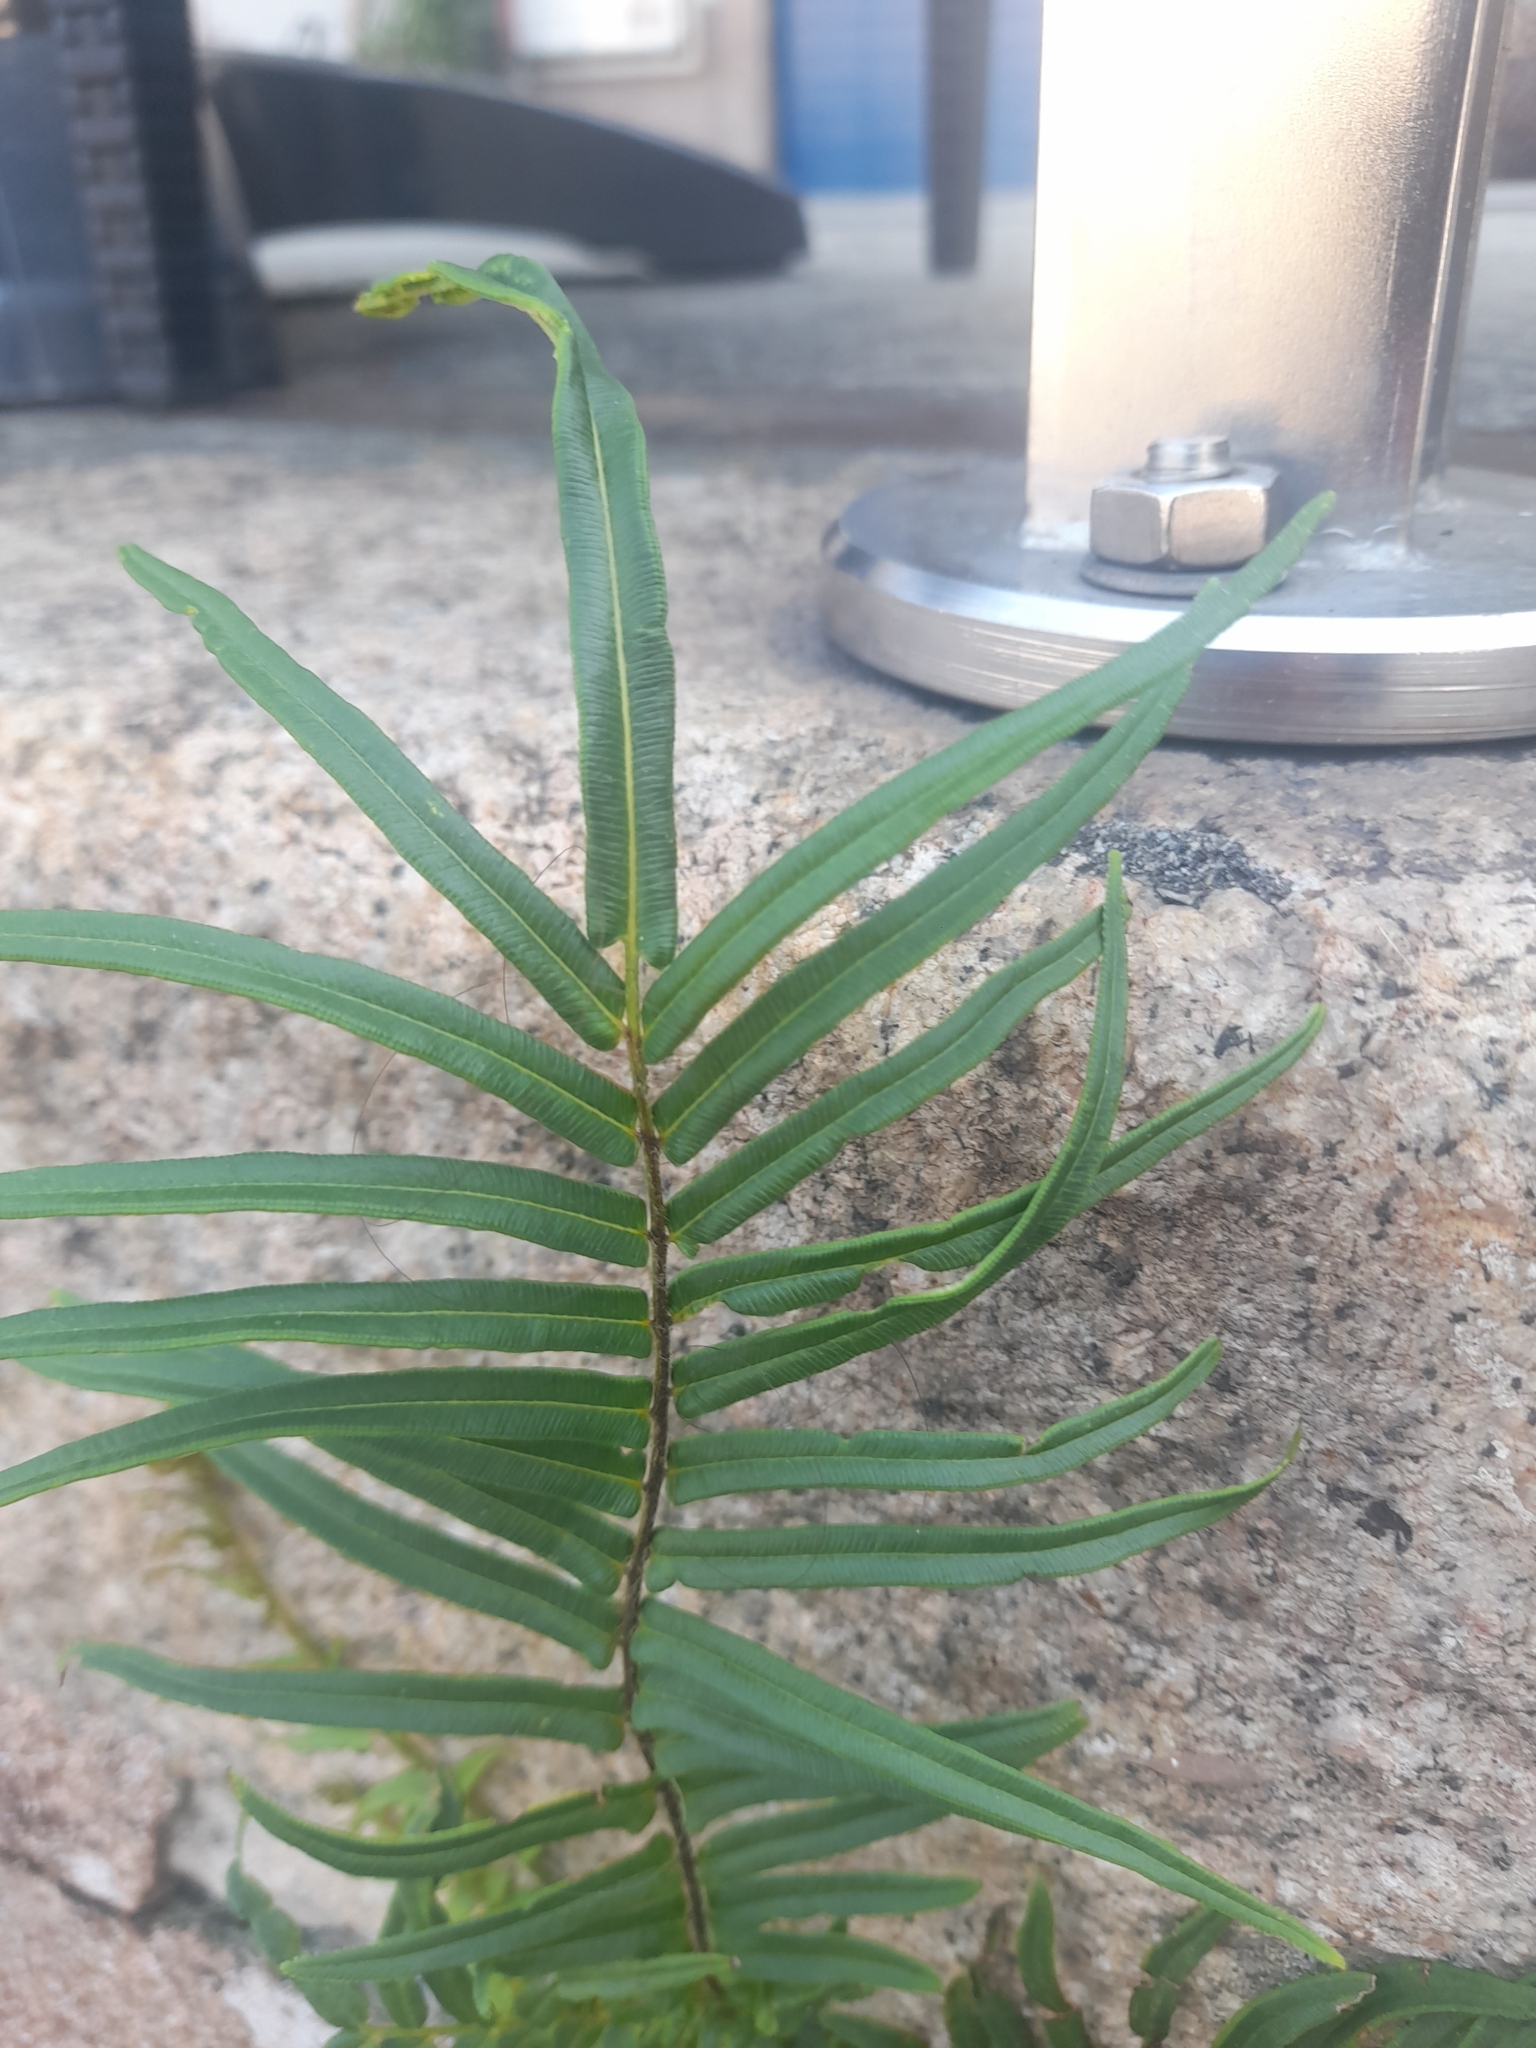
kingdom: Plantae
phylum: Tracheophyta
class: Polypodiopsida
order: Polypodiales
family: Pteridaceae
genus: Pteris
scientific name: Pteris vittata
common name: Ladder brake
